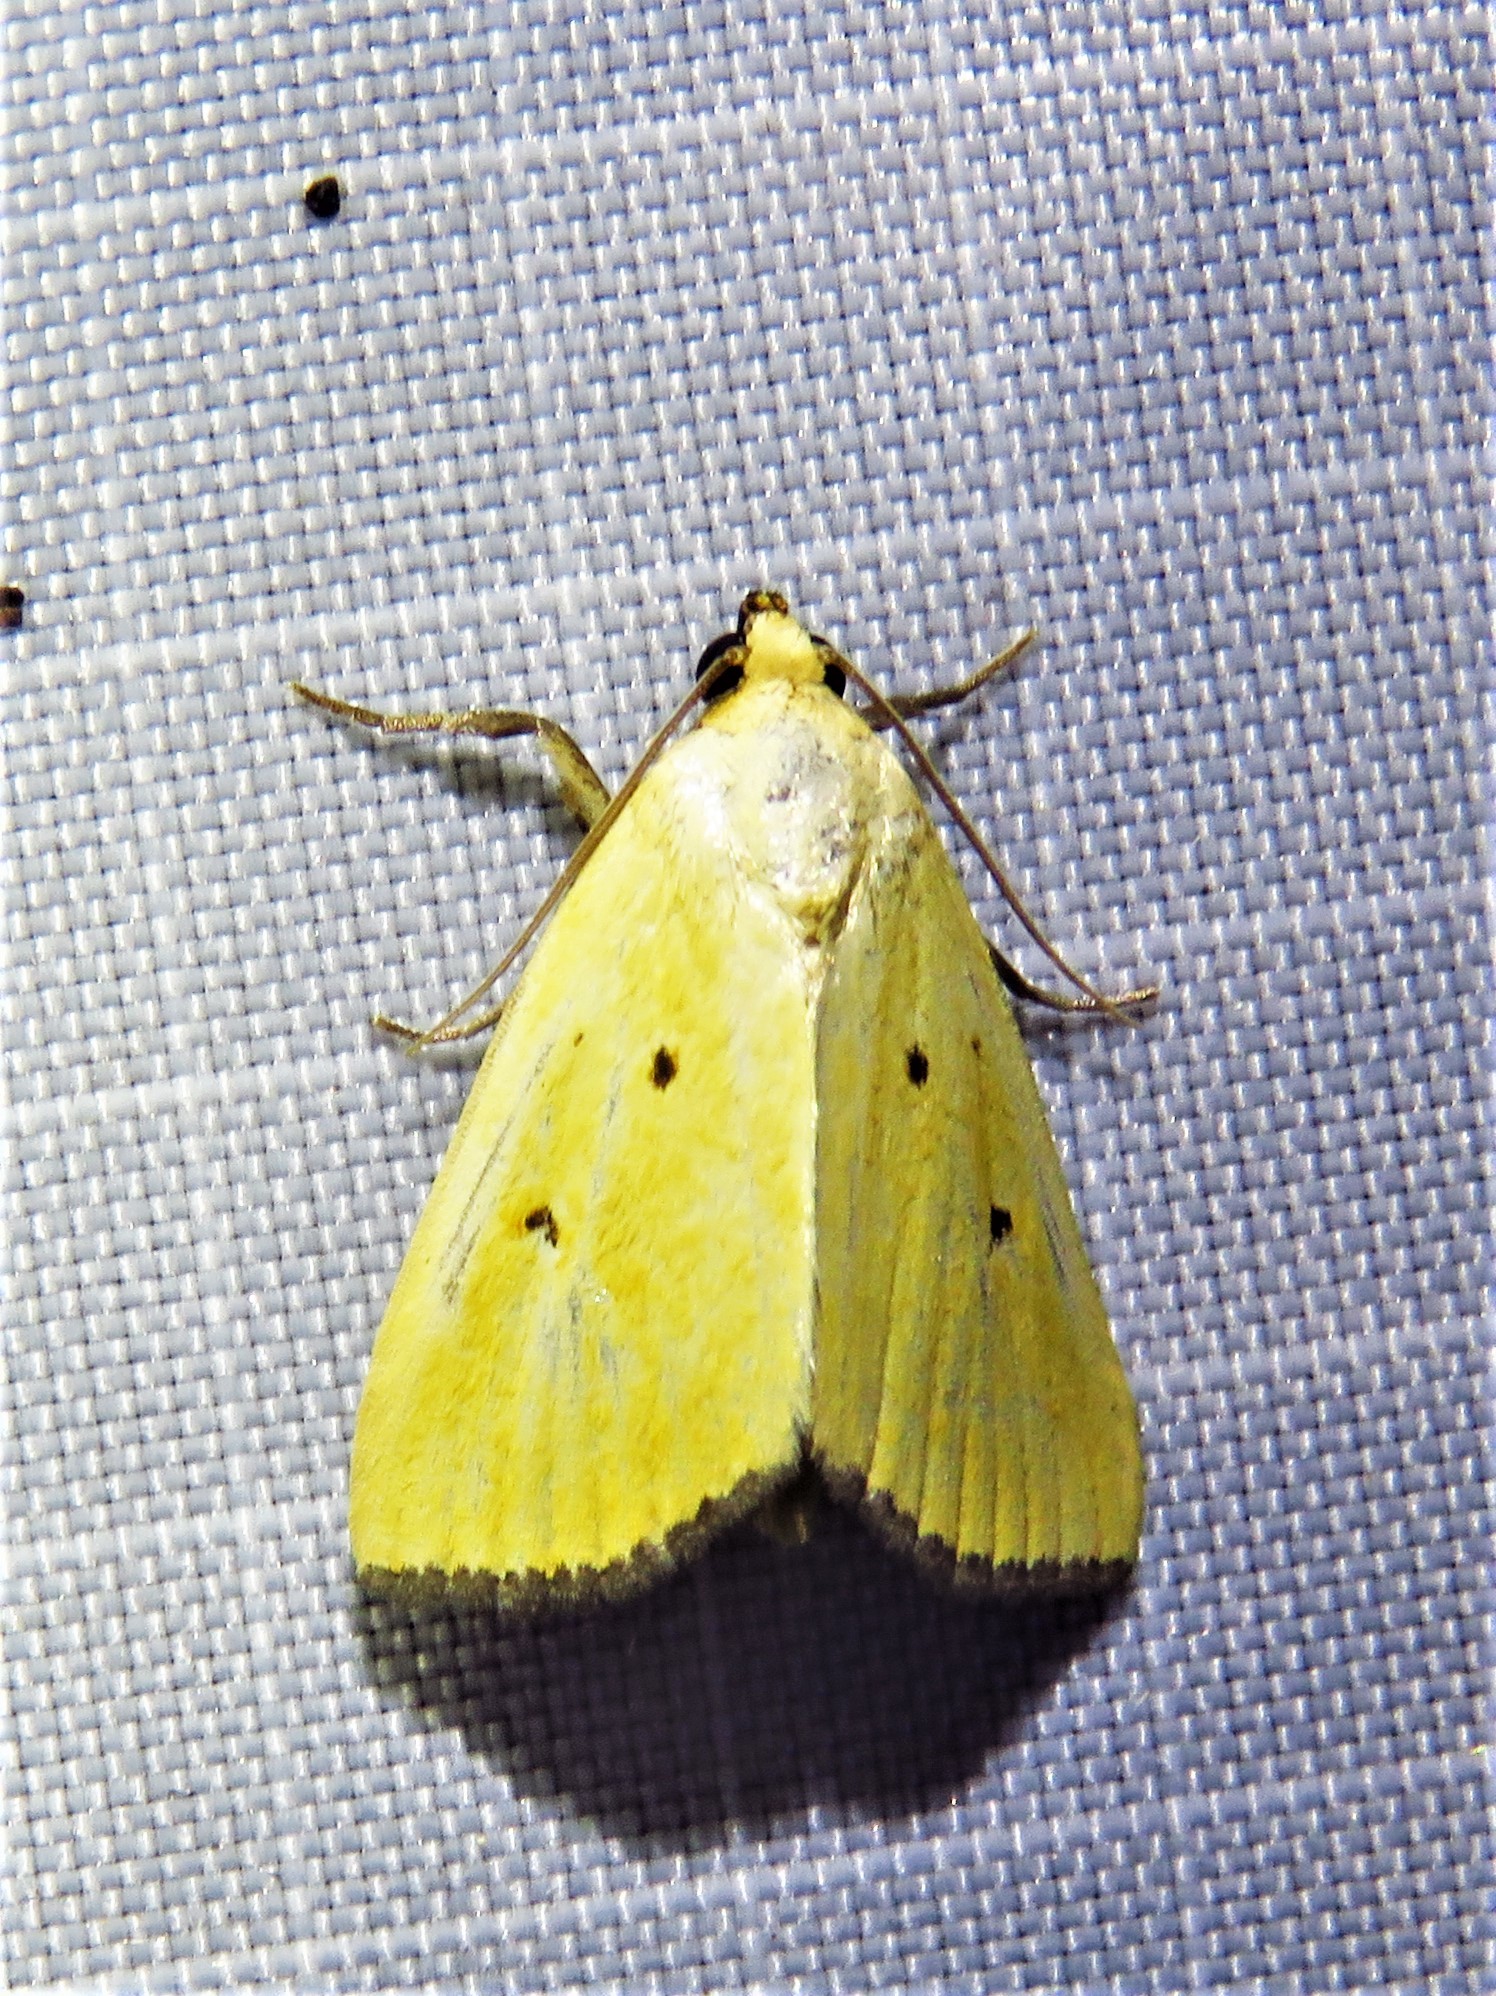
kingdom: Animalia
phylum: Arthropoda
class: Insecta
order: Lepidoptera
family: Noctuidae
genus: Marimatha
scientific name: Marimatha nigrofimbria
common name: Black-bordered lemon moth
